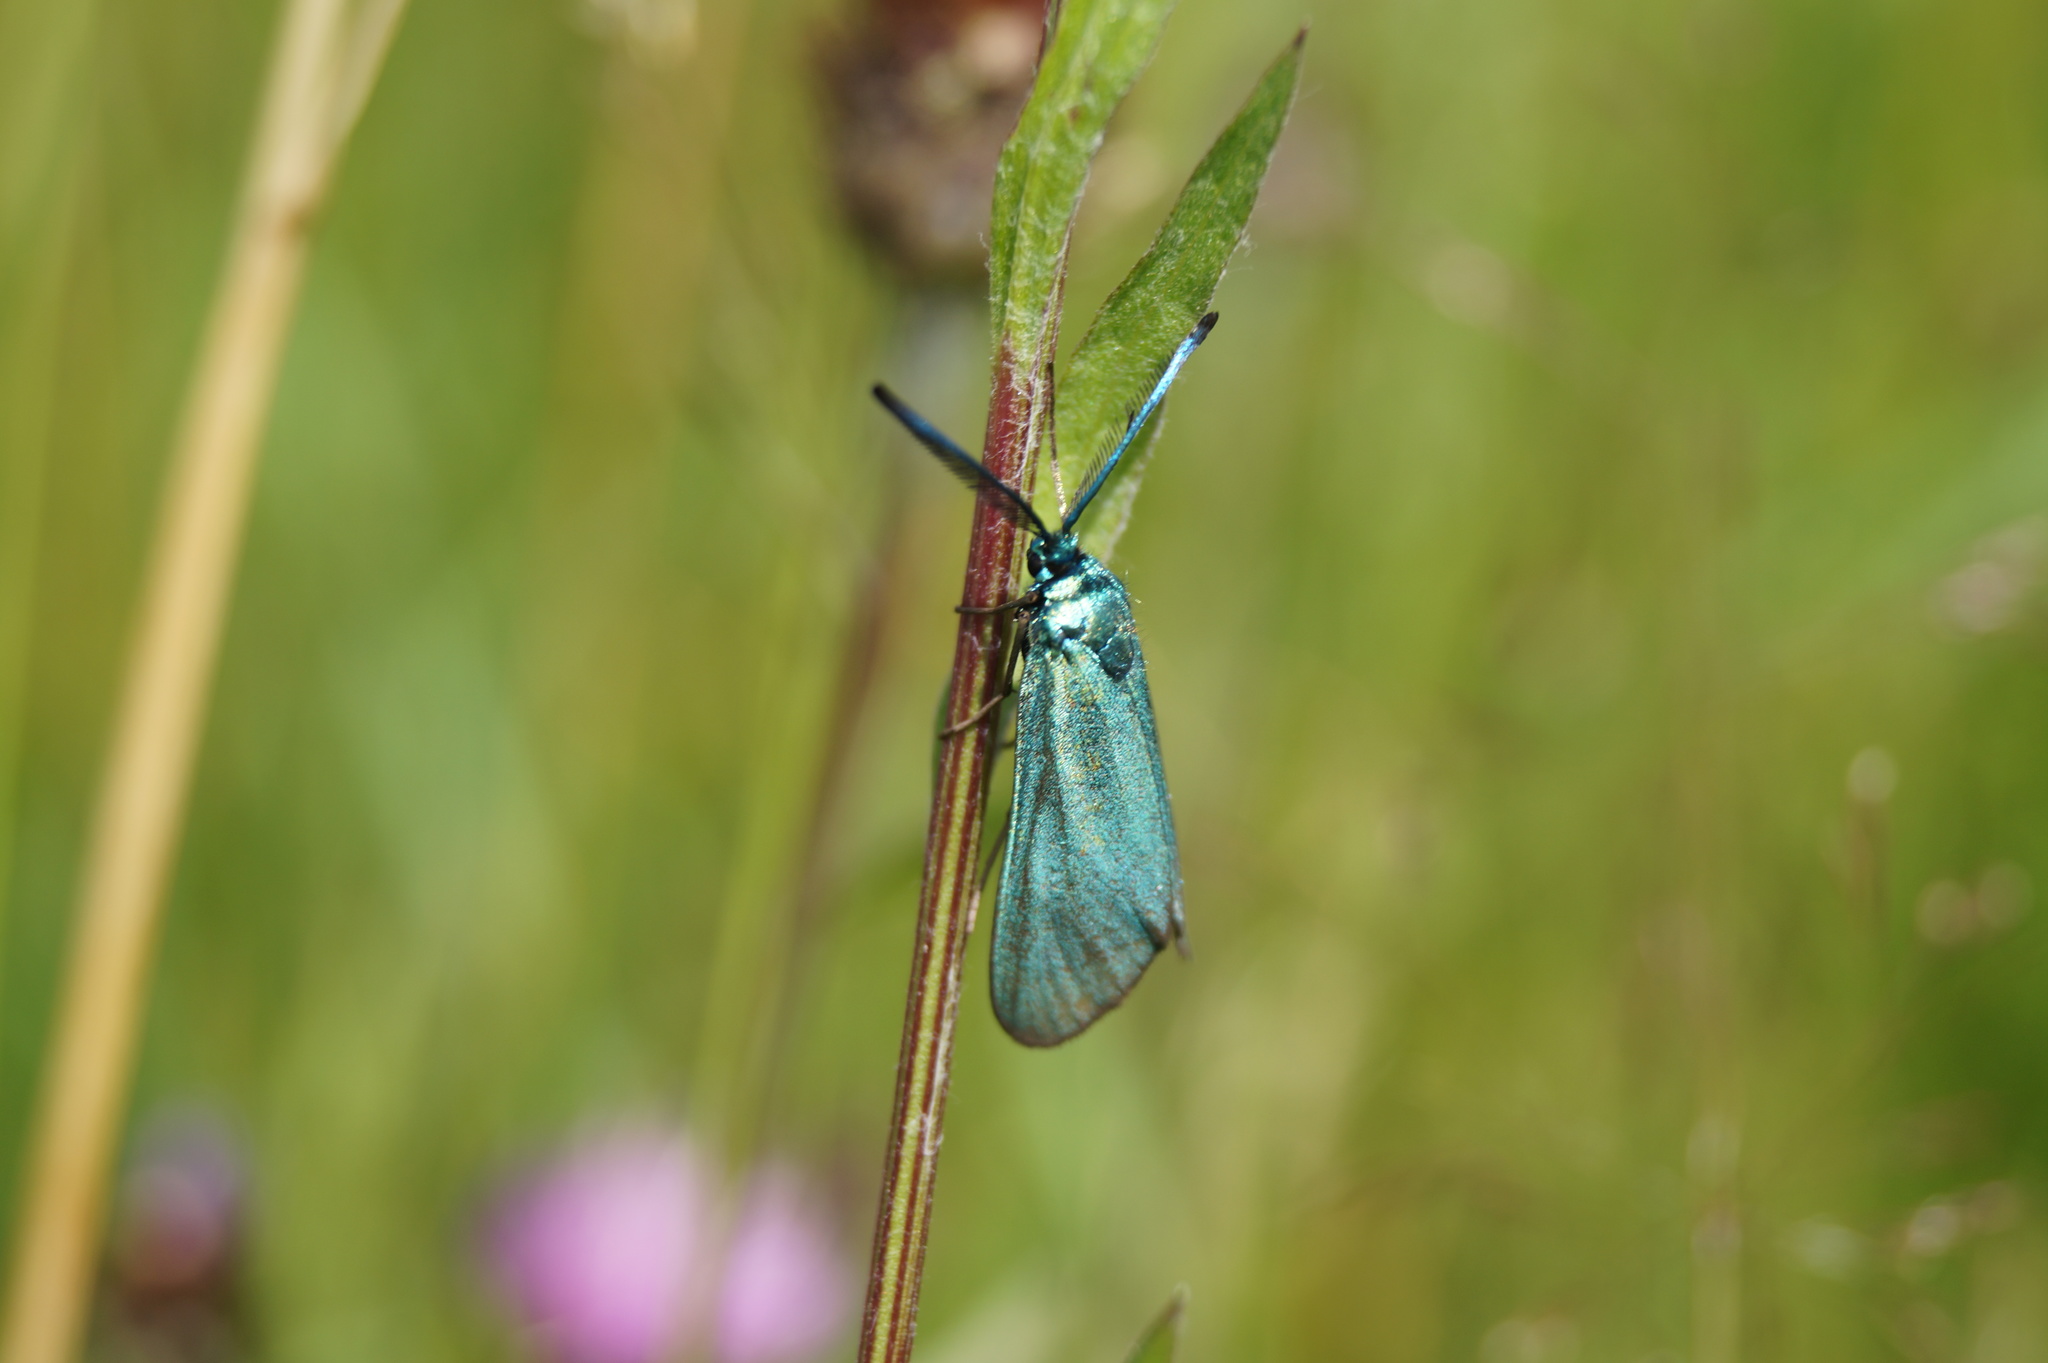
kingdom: Animalia
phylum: Arthropoda
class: Insecta
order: Lepidoptera
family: Zygaenidae
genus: Adscita
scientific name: Adscita statices
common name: Forester
